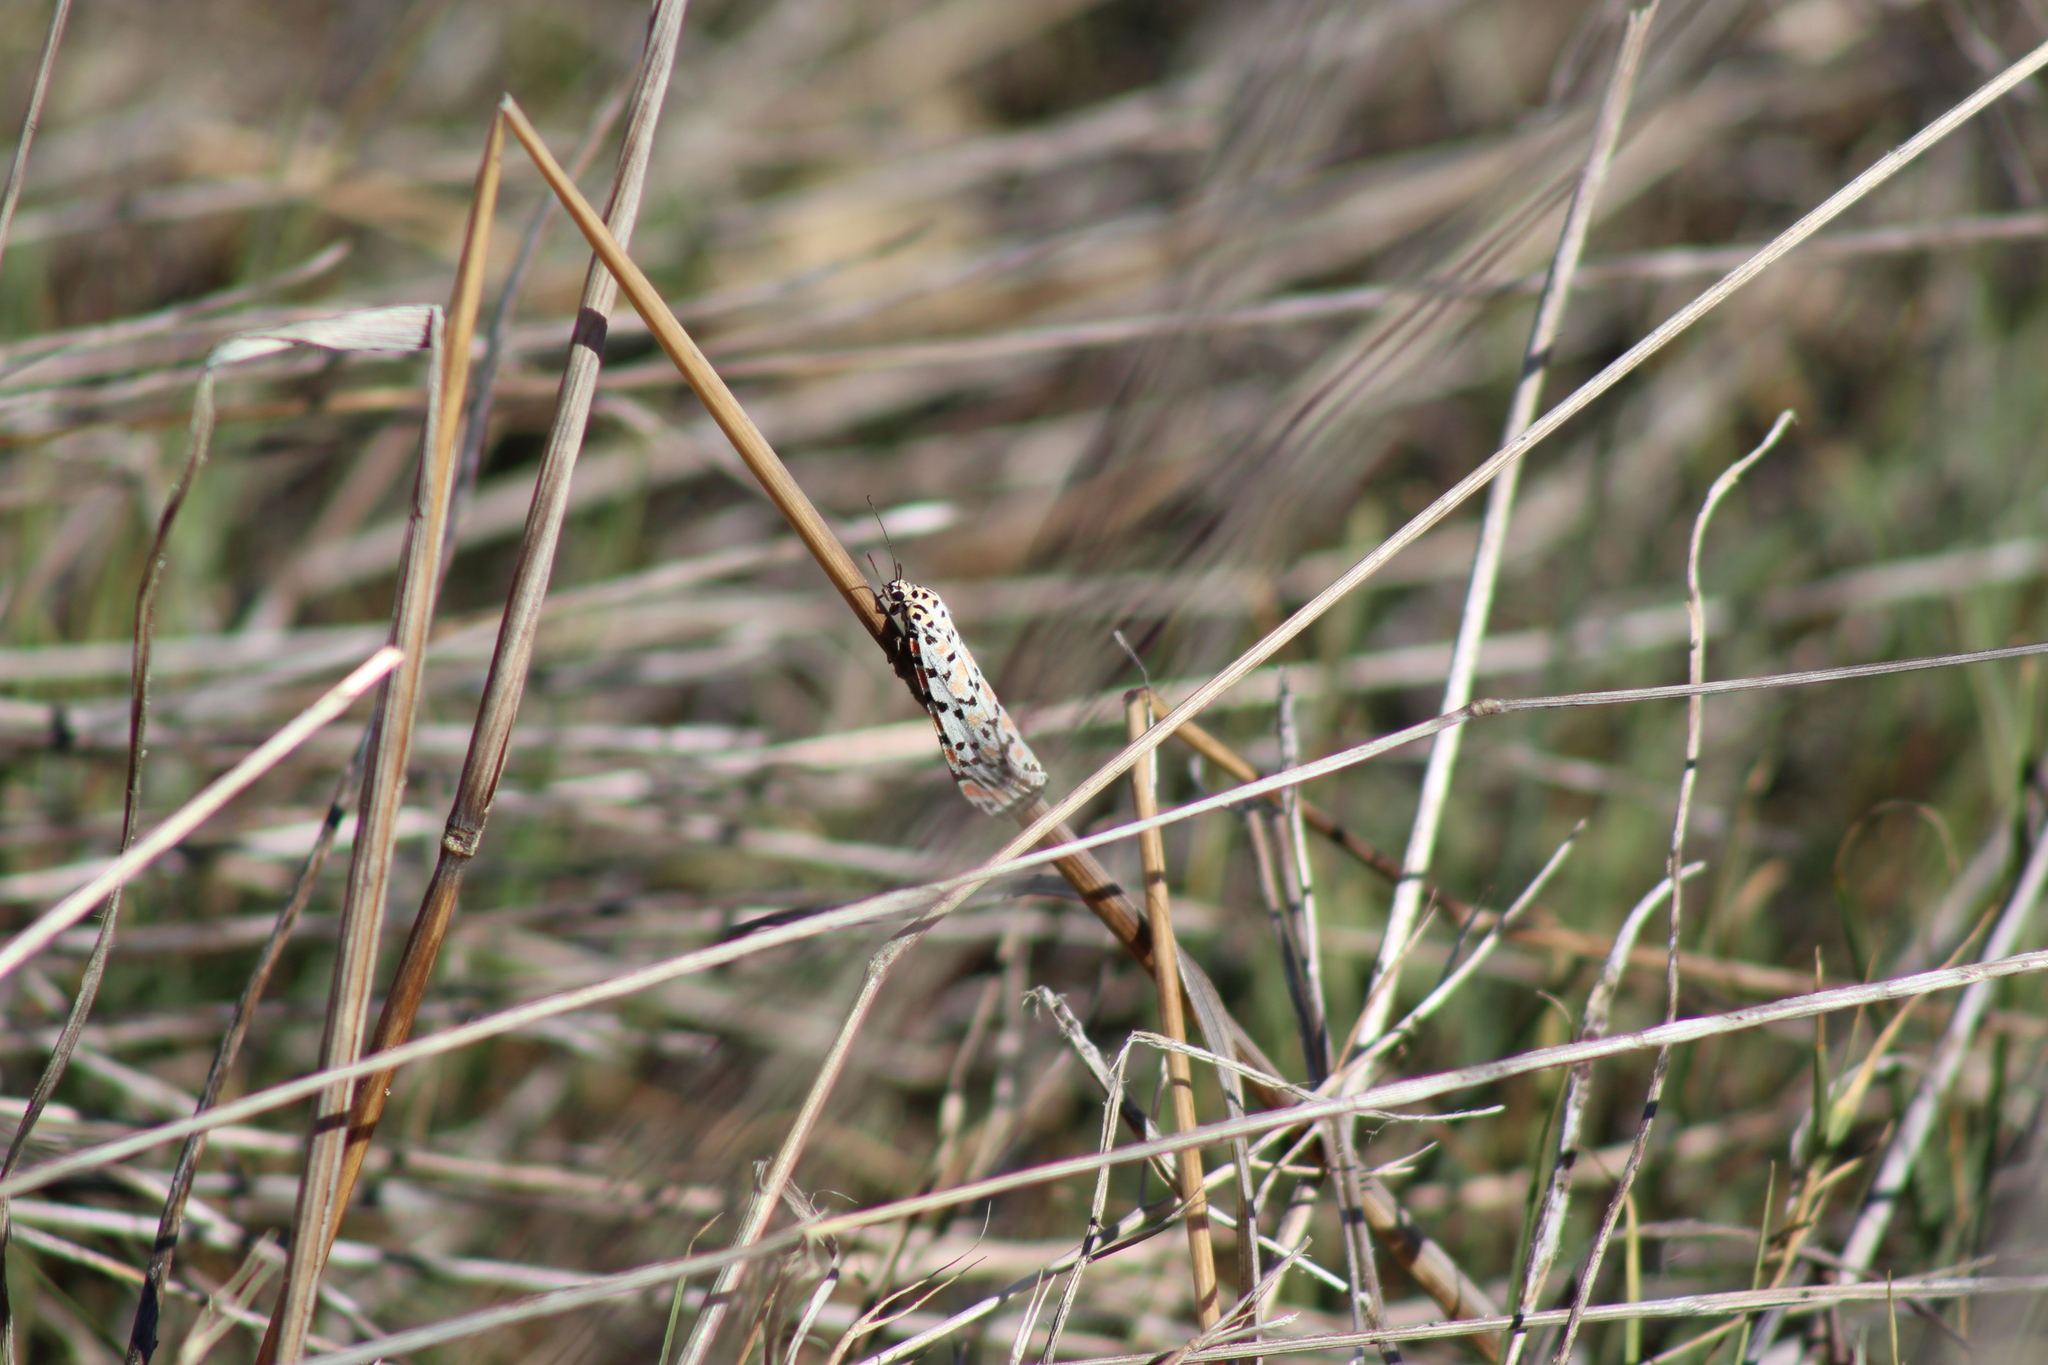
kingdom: Animalia
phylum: Arthropoda
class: Insecta
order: Lepidoptera
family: Erebidae
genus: Utetheisa
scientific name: Utetheisa pulchella
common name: Crimson speckled
